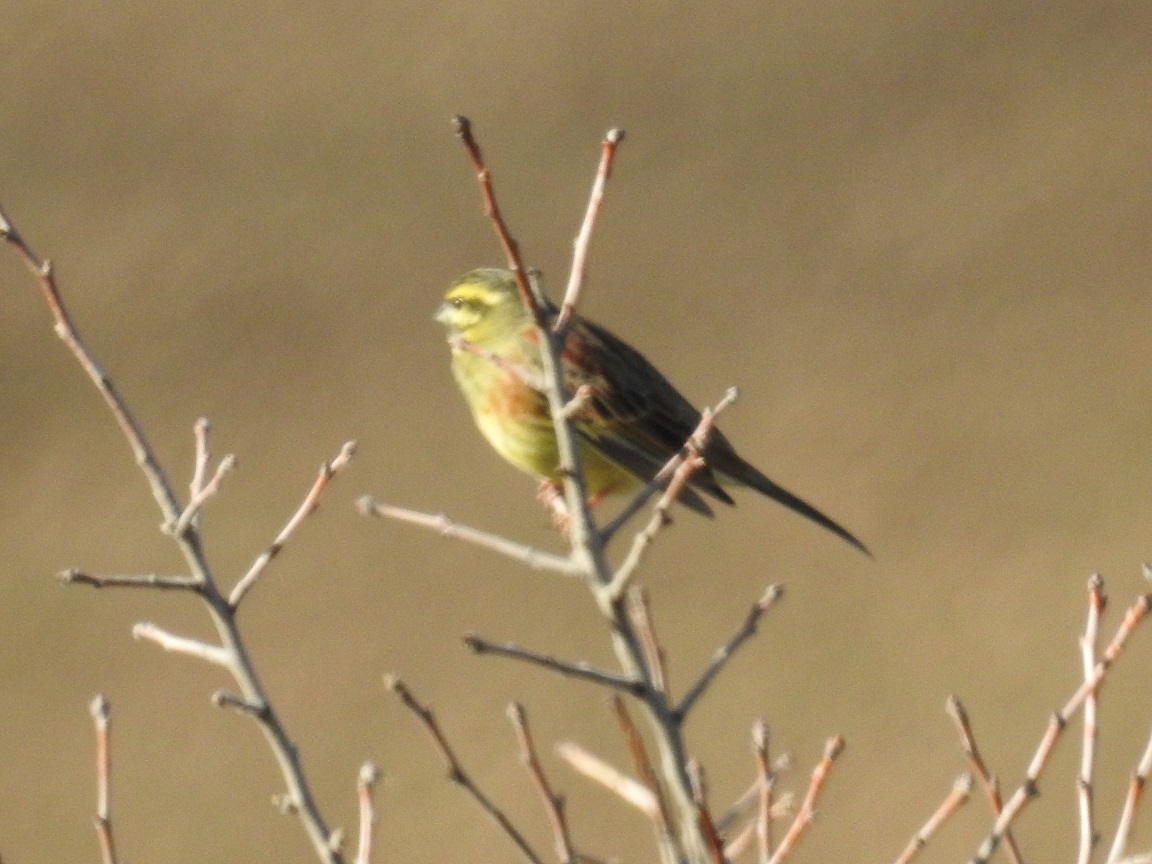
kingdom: Animalia
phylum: Chordata
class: Aves
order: Passeriformes
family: Emberizidae
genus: Emberiza
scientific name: Emberiza cirlus
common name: Cirl bunting
